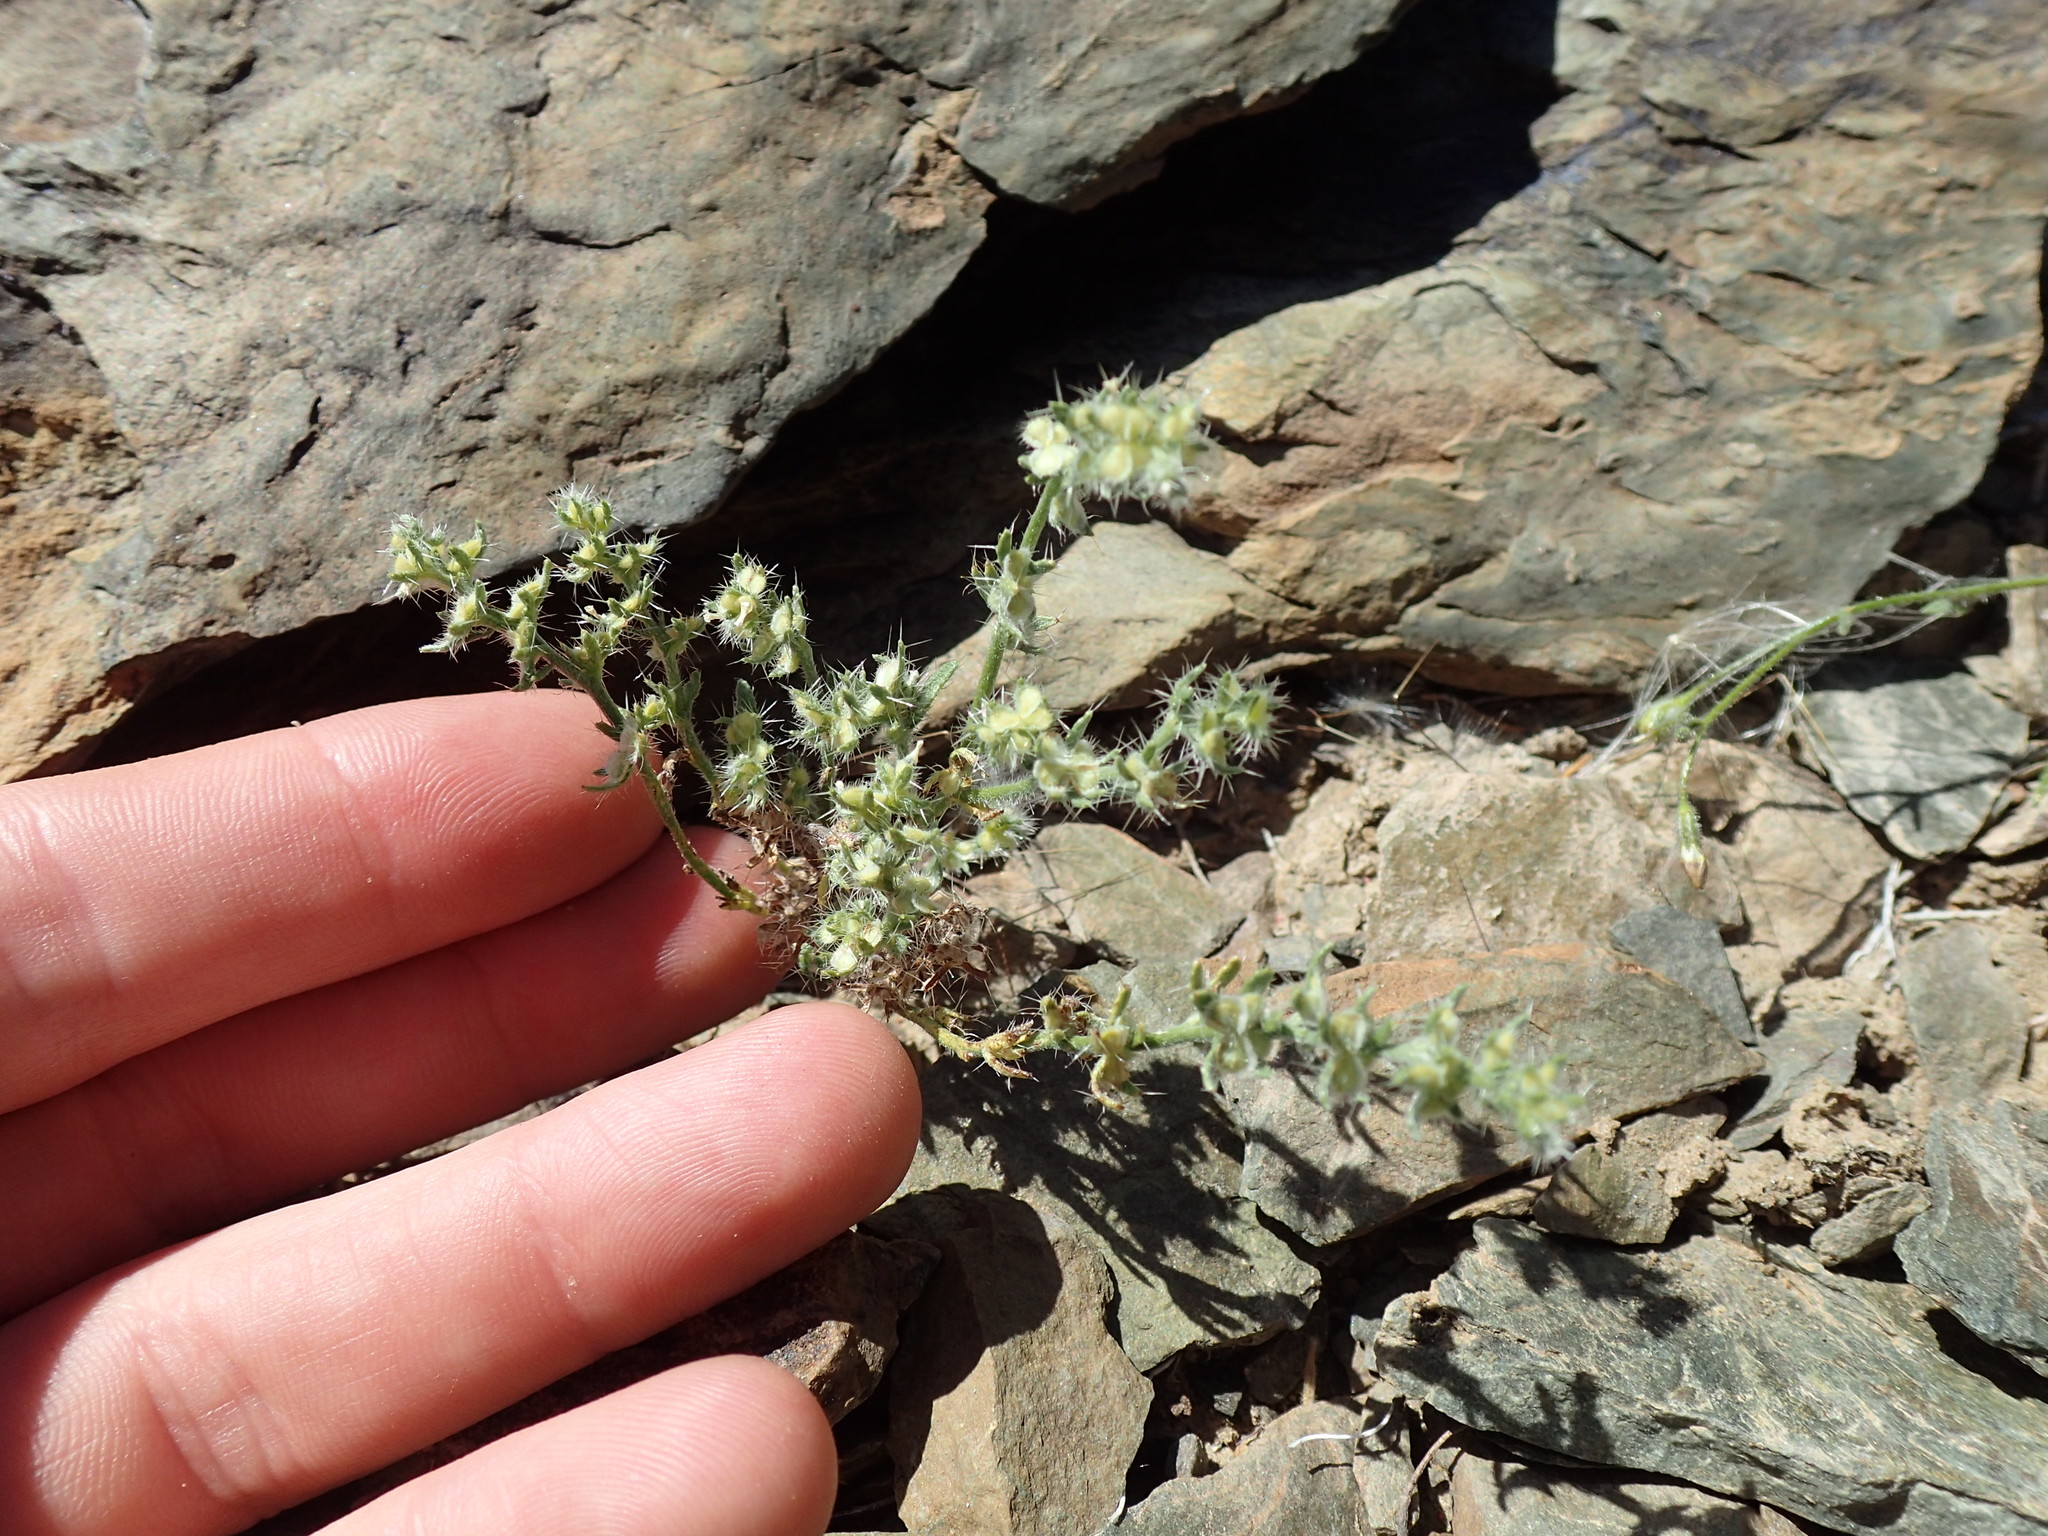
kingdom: Plantae
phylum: Tracheophyta
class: Magnoliopsida
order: Boraginales
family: Boraginaceae
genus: Pectocarya
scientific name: Pectocarya setosa
